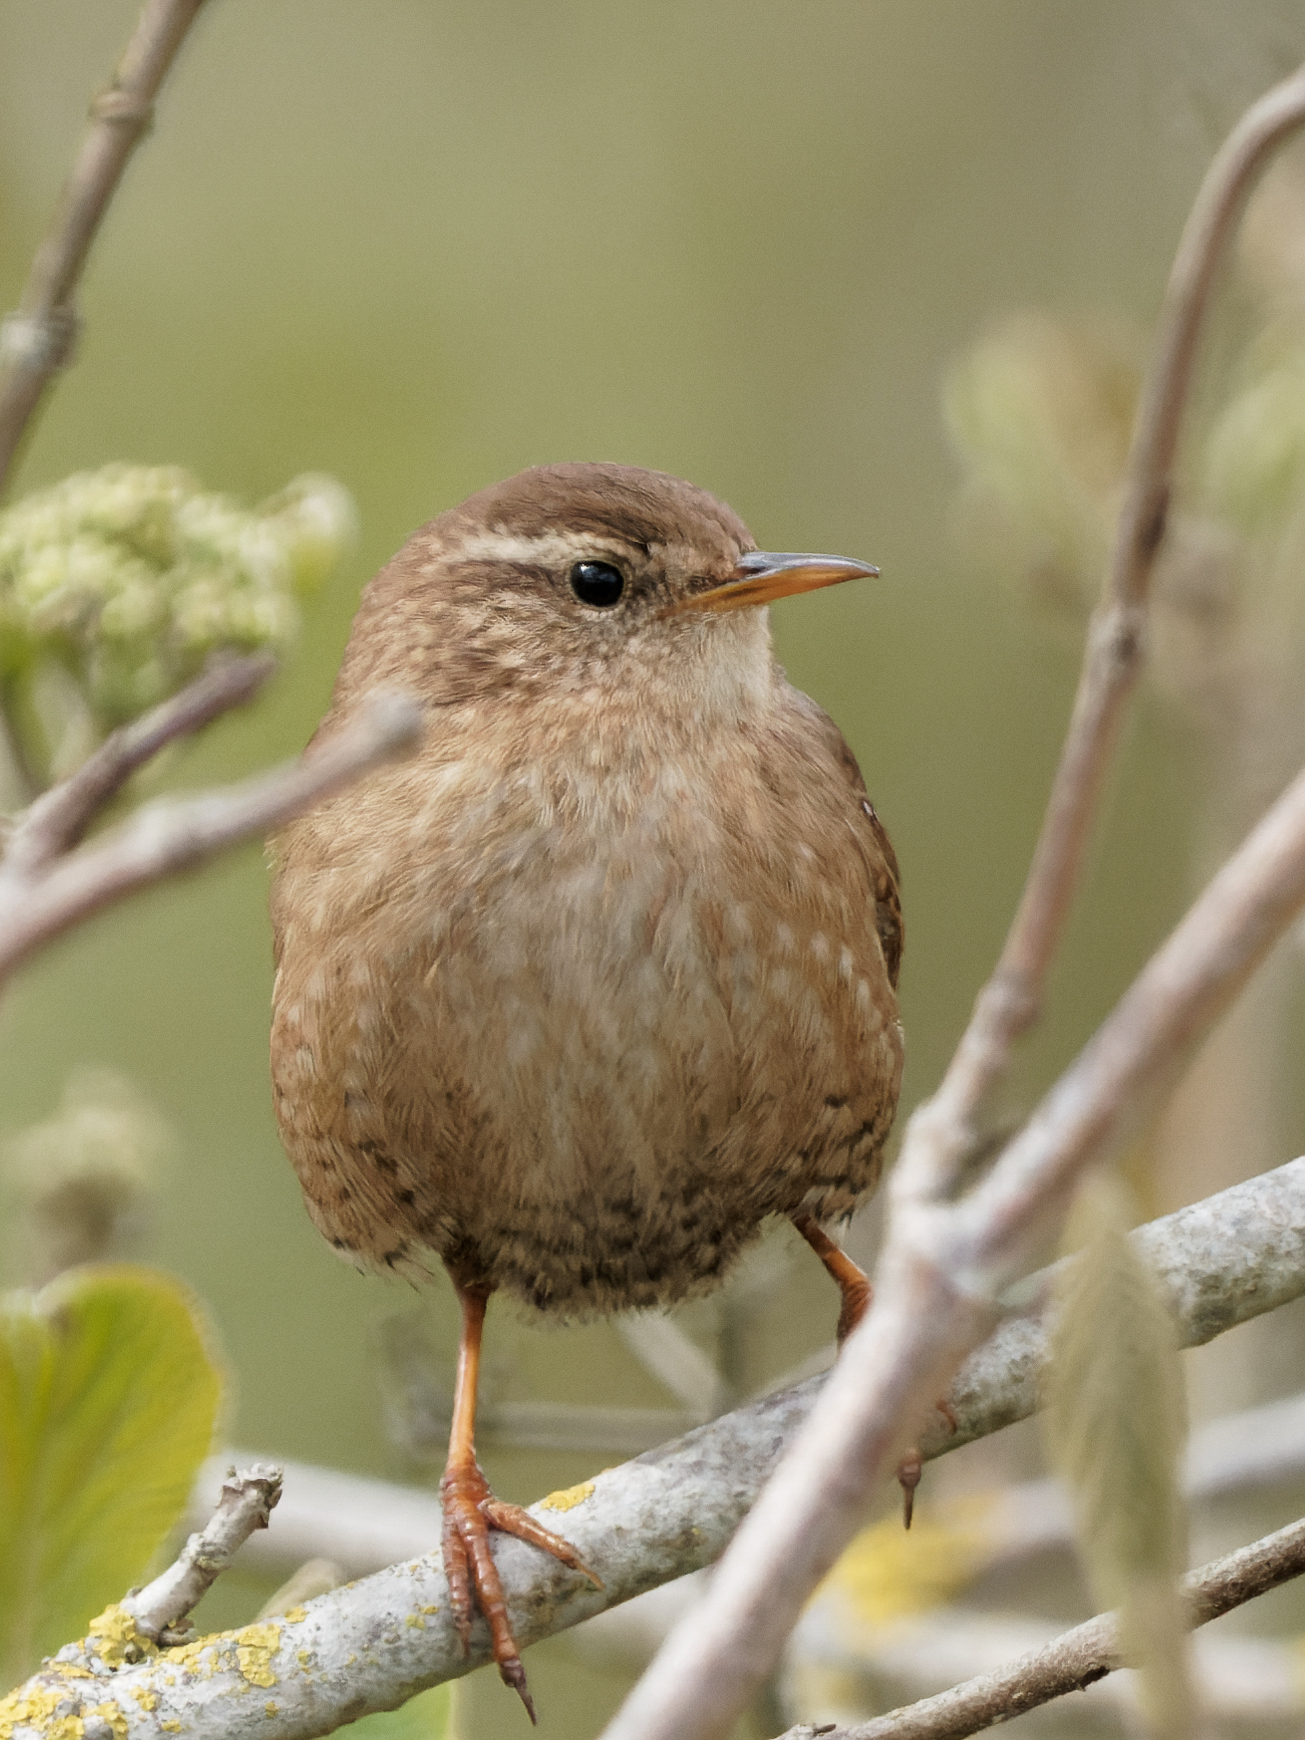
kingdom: Animalia
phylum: Chordata
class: Aves
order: Passeriformes
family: Troglodytidae
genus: Troglodytes
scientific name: Troglodytes troglodytes
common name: Eurasian wren
